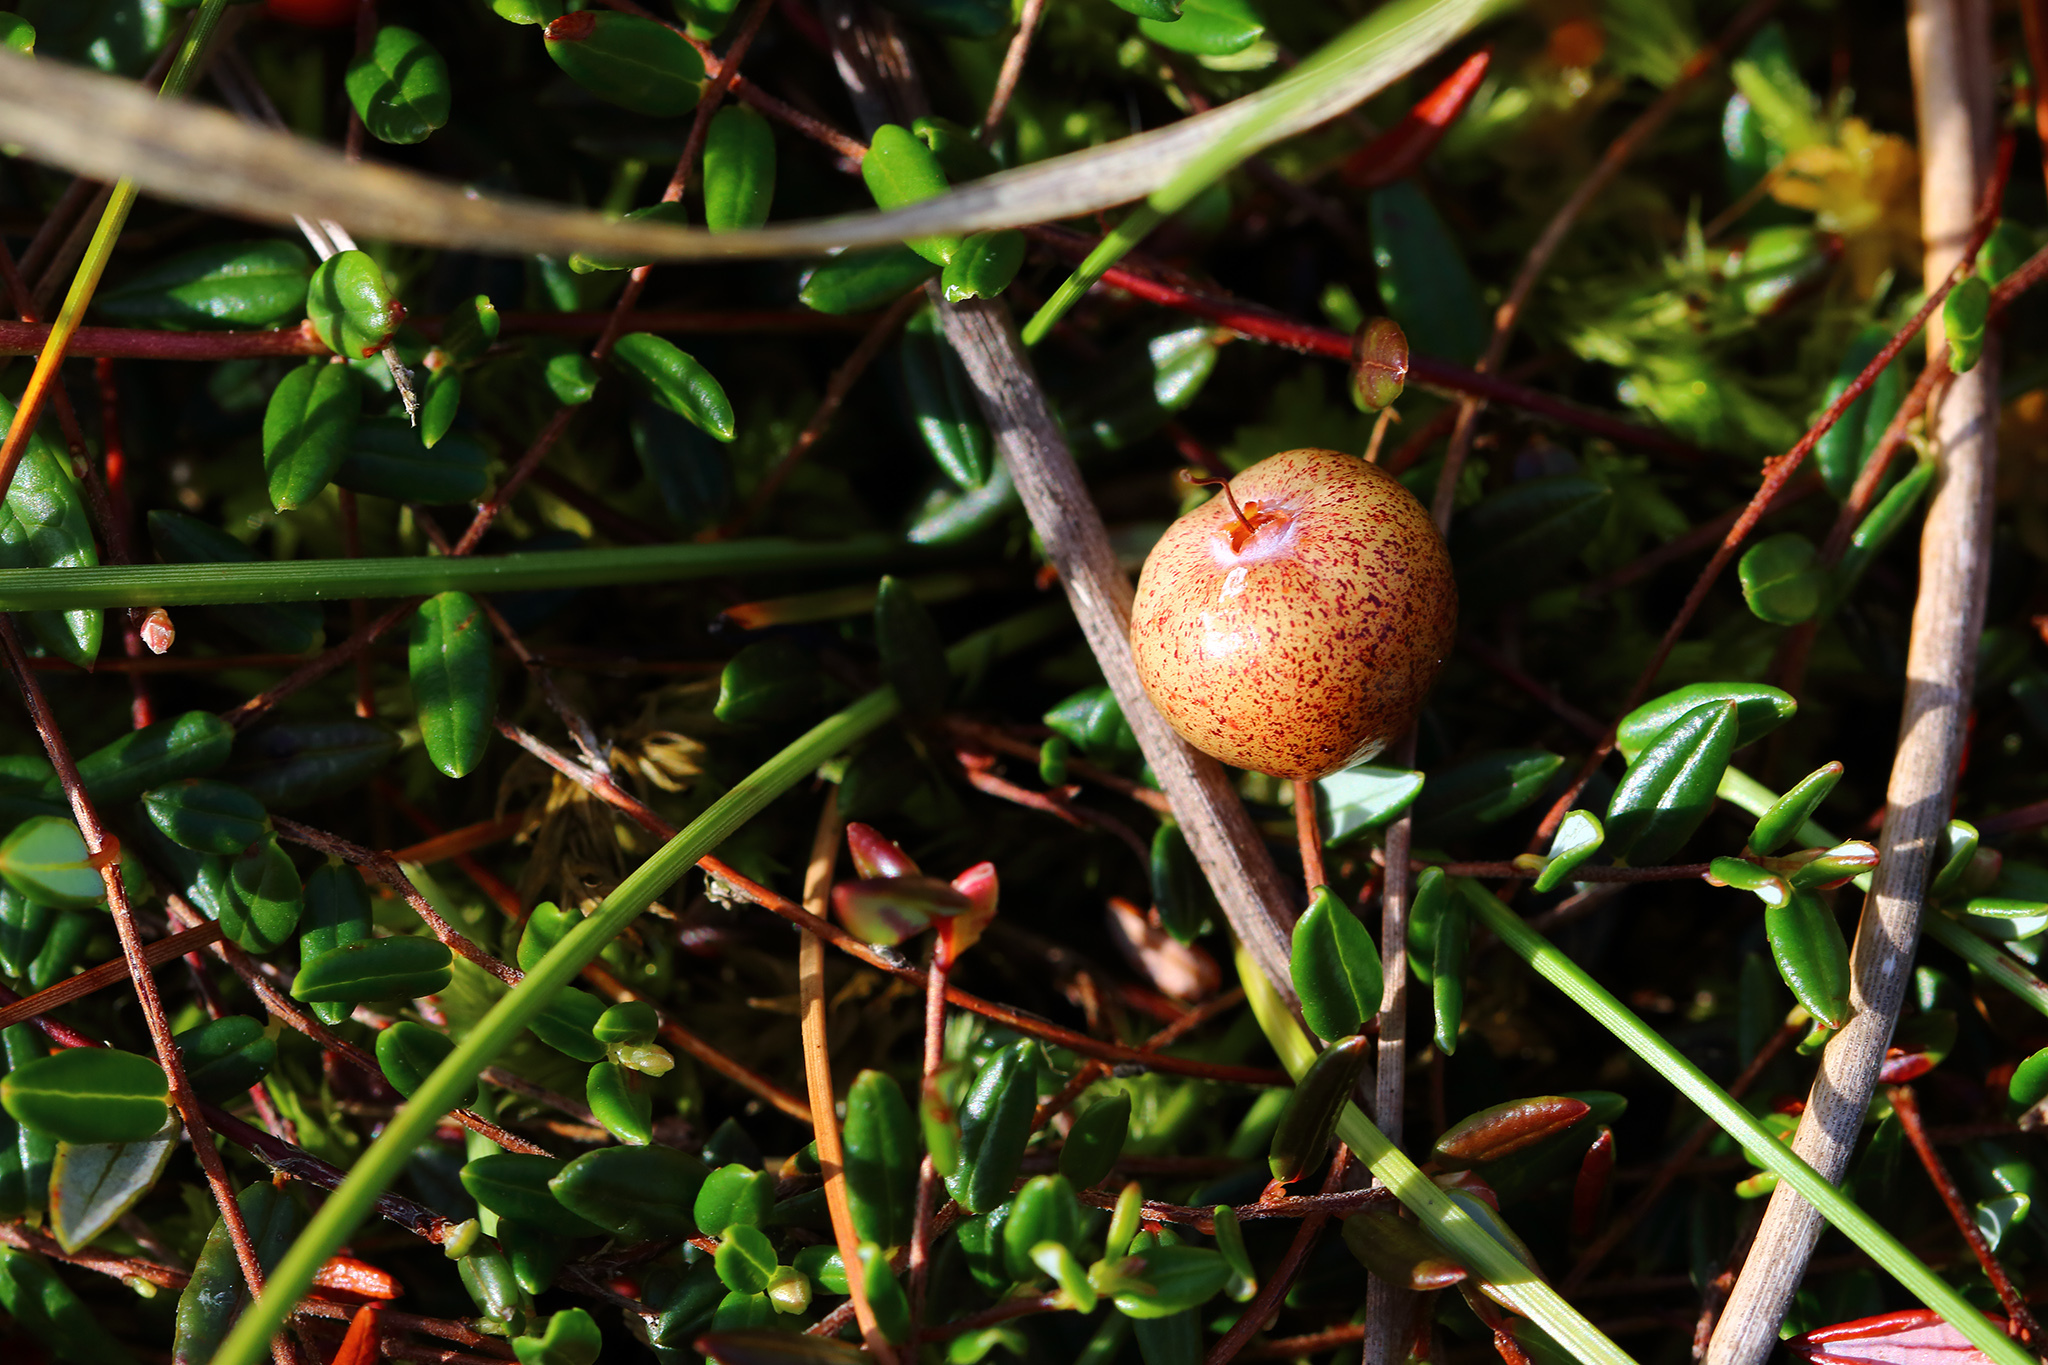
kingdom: Plantae
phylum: Tracheophyta
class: Magnoliopsida
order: Ericales
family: Ericaceae
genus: Vaccinium
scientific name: Vaccinium oxycoccos
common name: Cranberry
